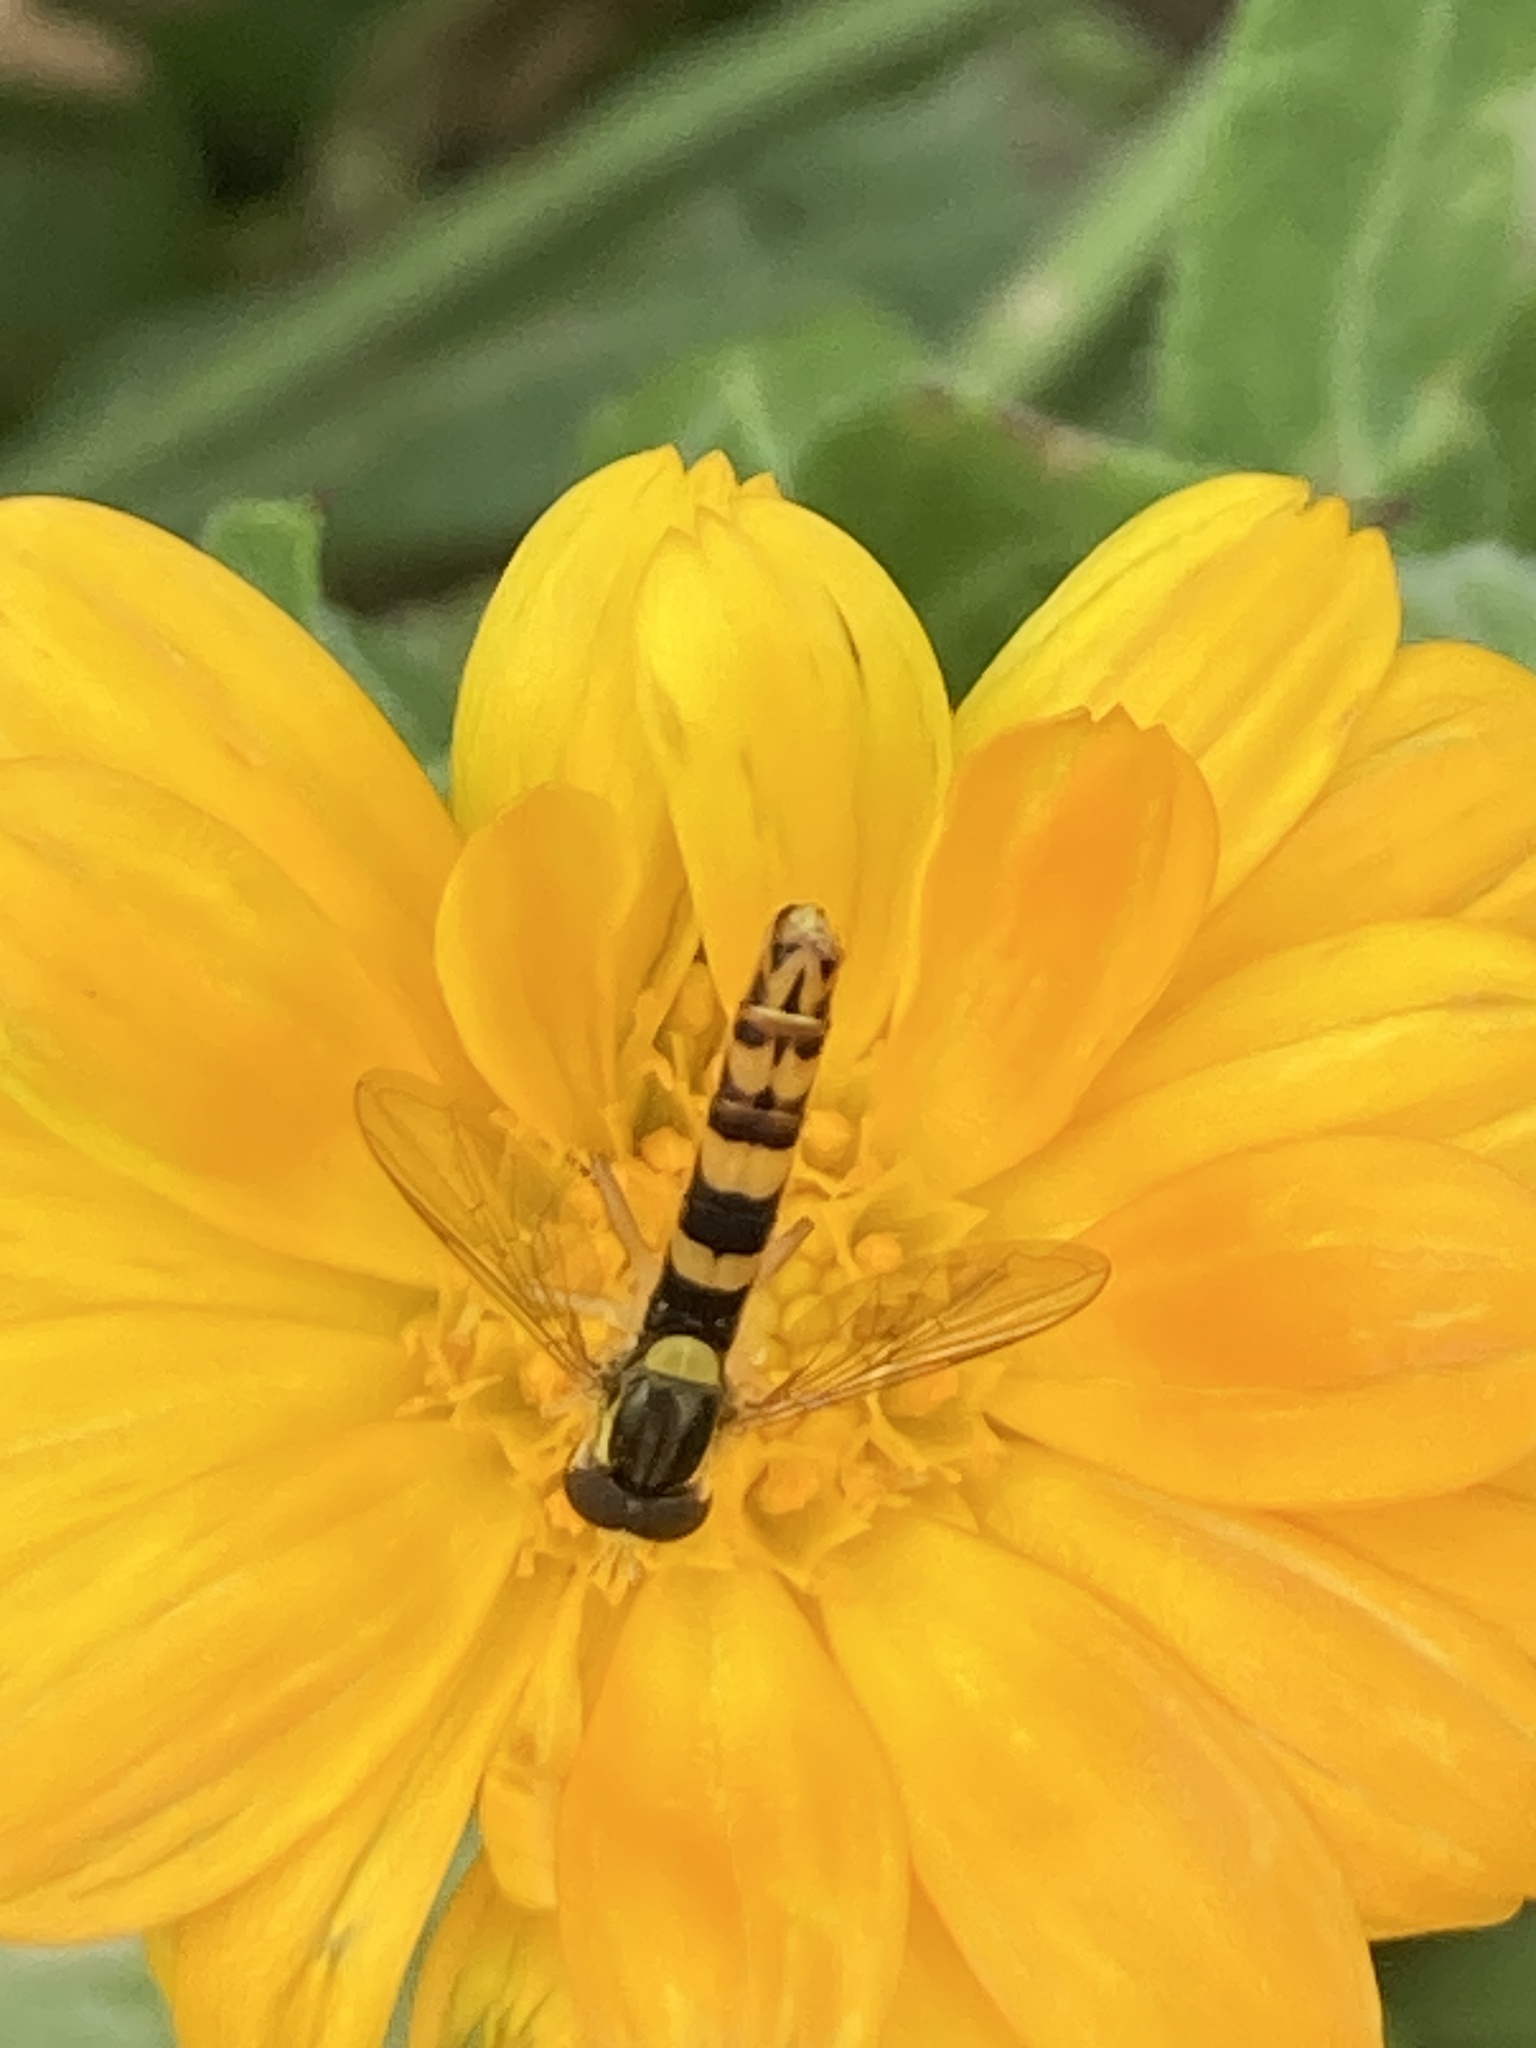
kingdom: Animalia
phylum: Arthropoda
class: Insecta
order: Diptera
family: Syrphidae
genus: Sphaerophoria
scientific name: Sphaerophoria scripta
